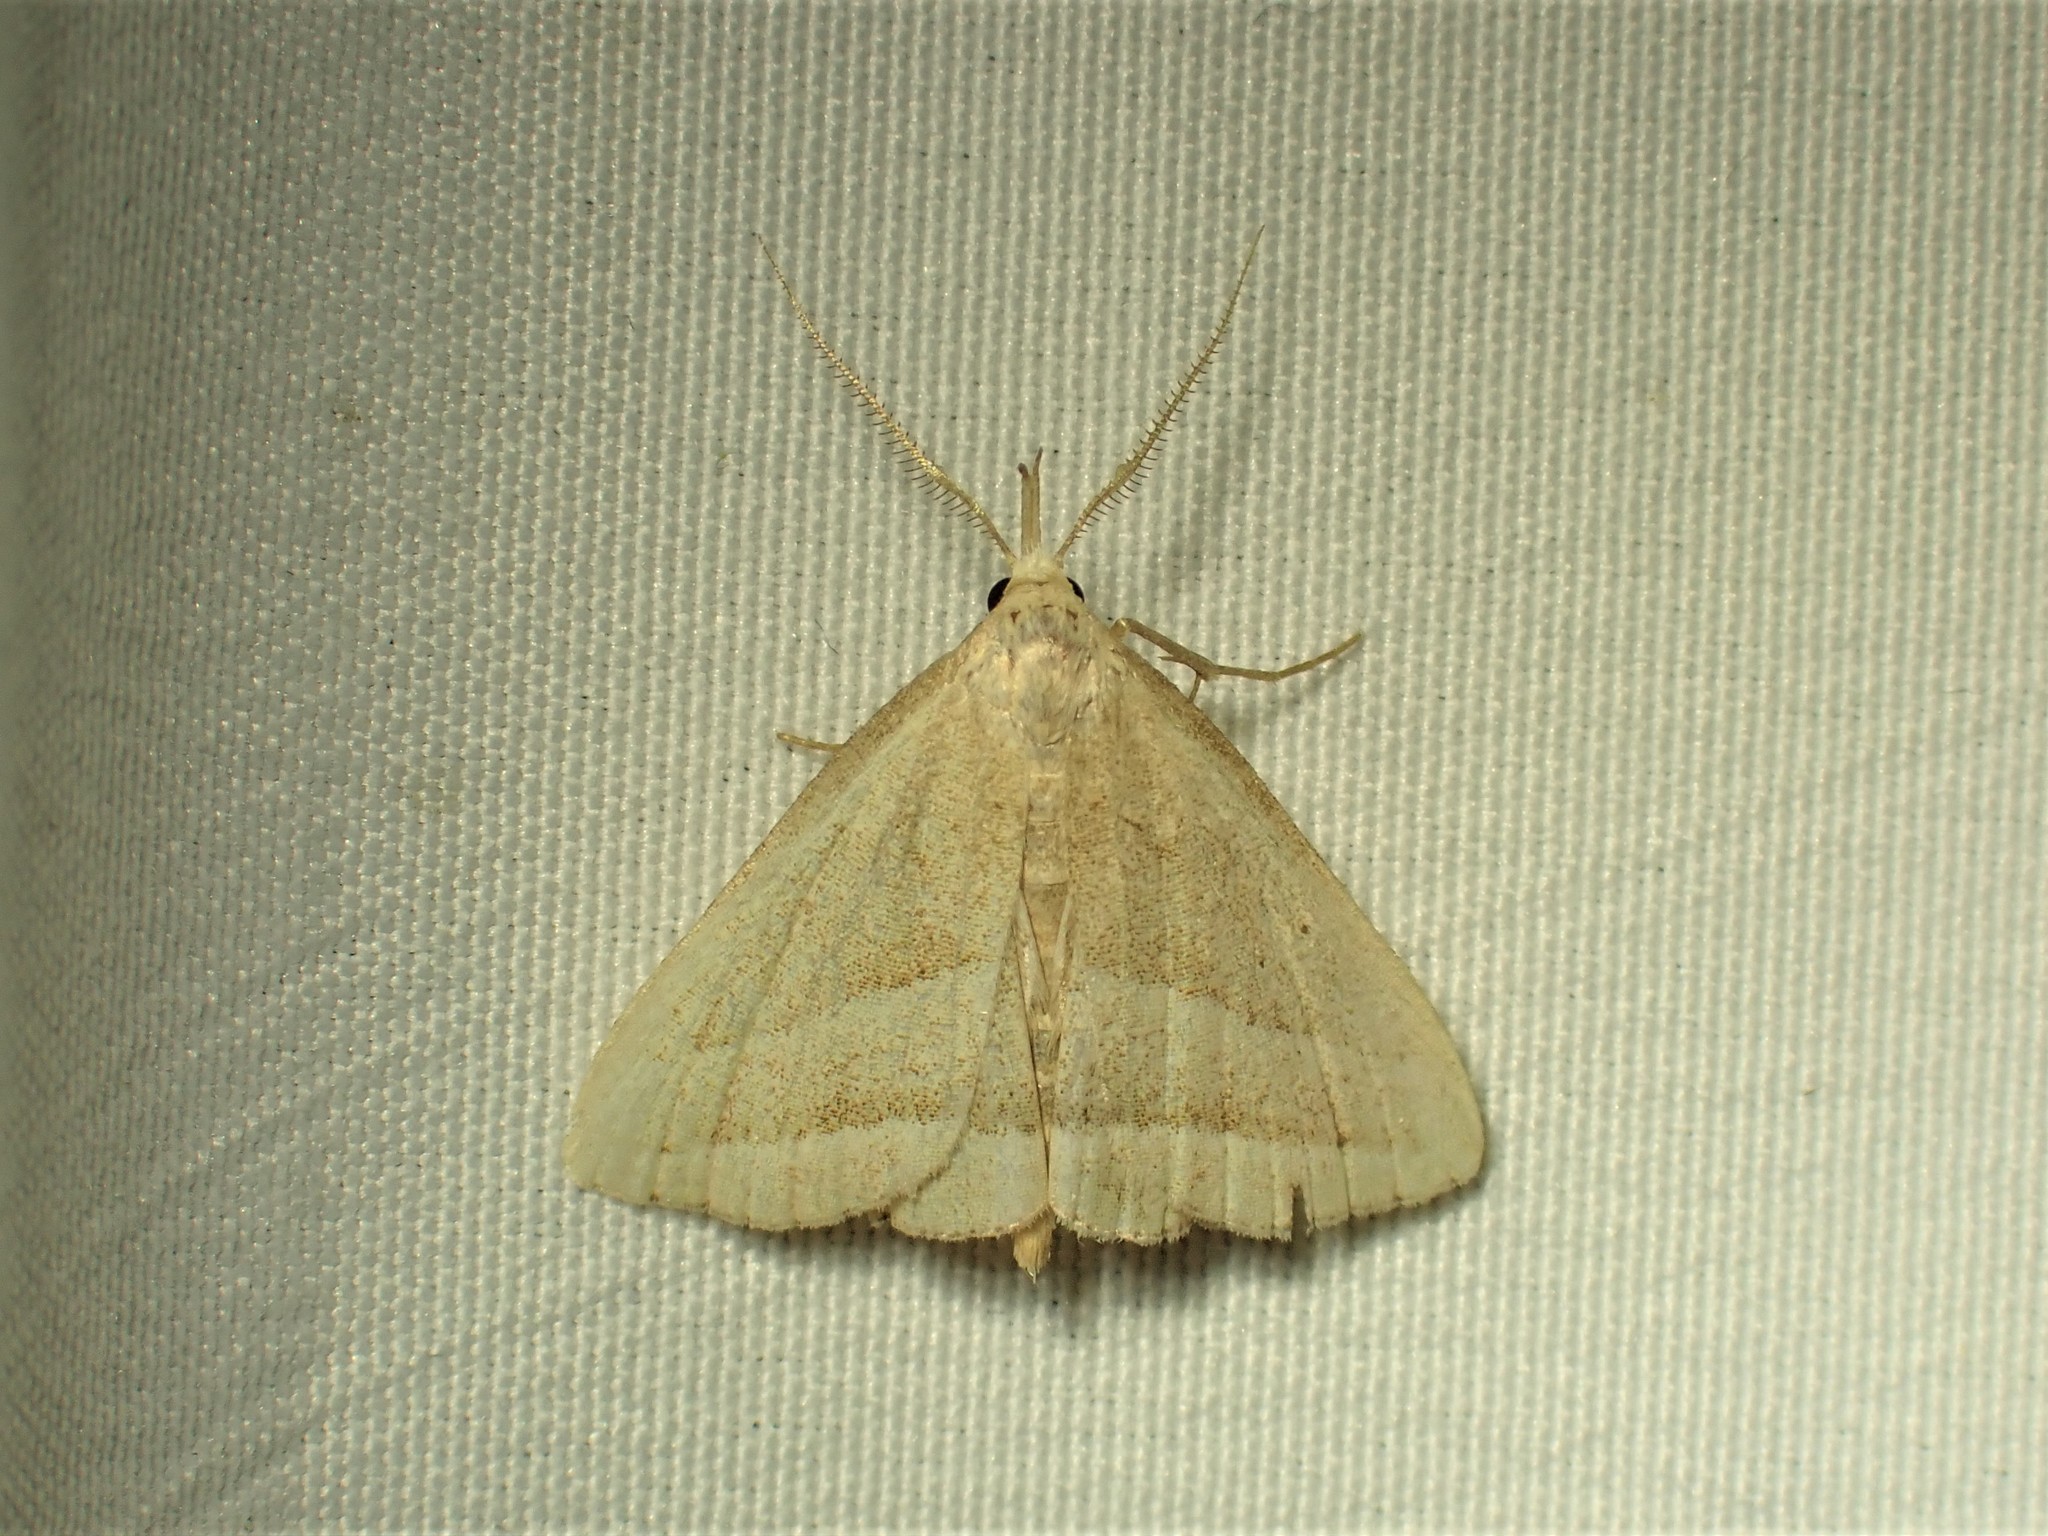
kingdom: Animalia
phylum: Arthropoda
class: Insecta
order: Lepidoptera
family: Erebidae
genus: Macrochilo
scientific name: Macrochilo absorptalis
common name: Slant-lined owlet
